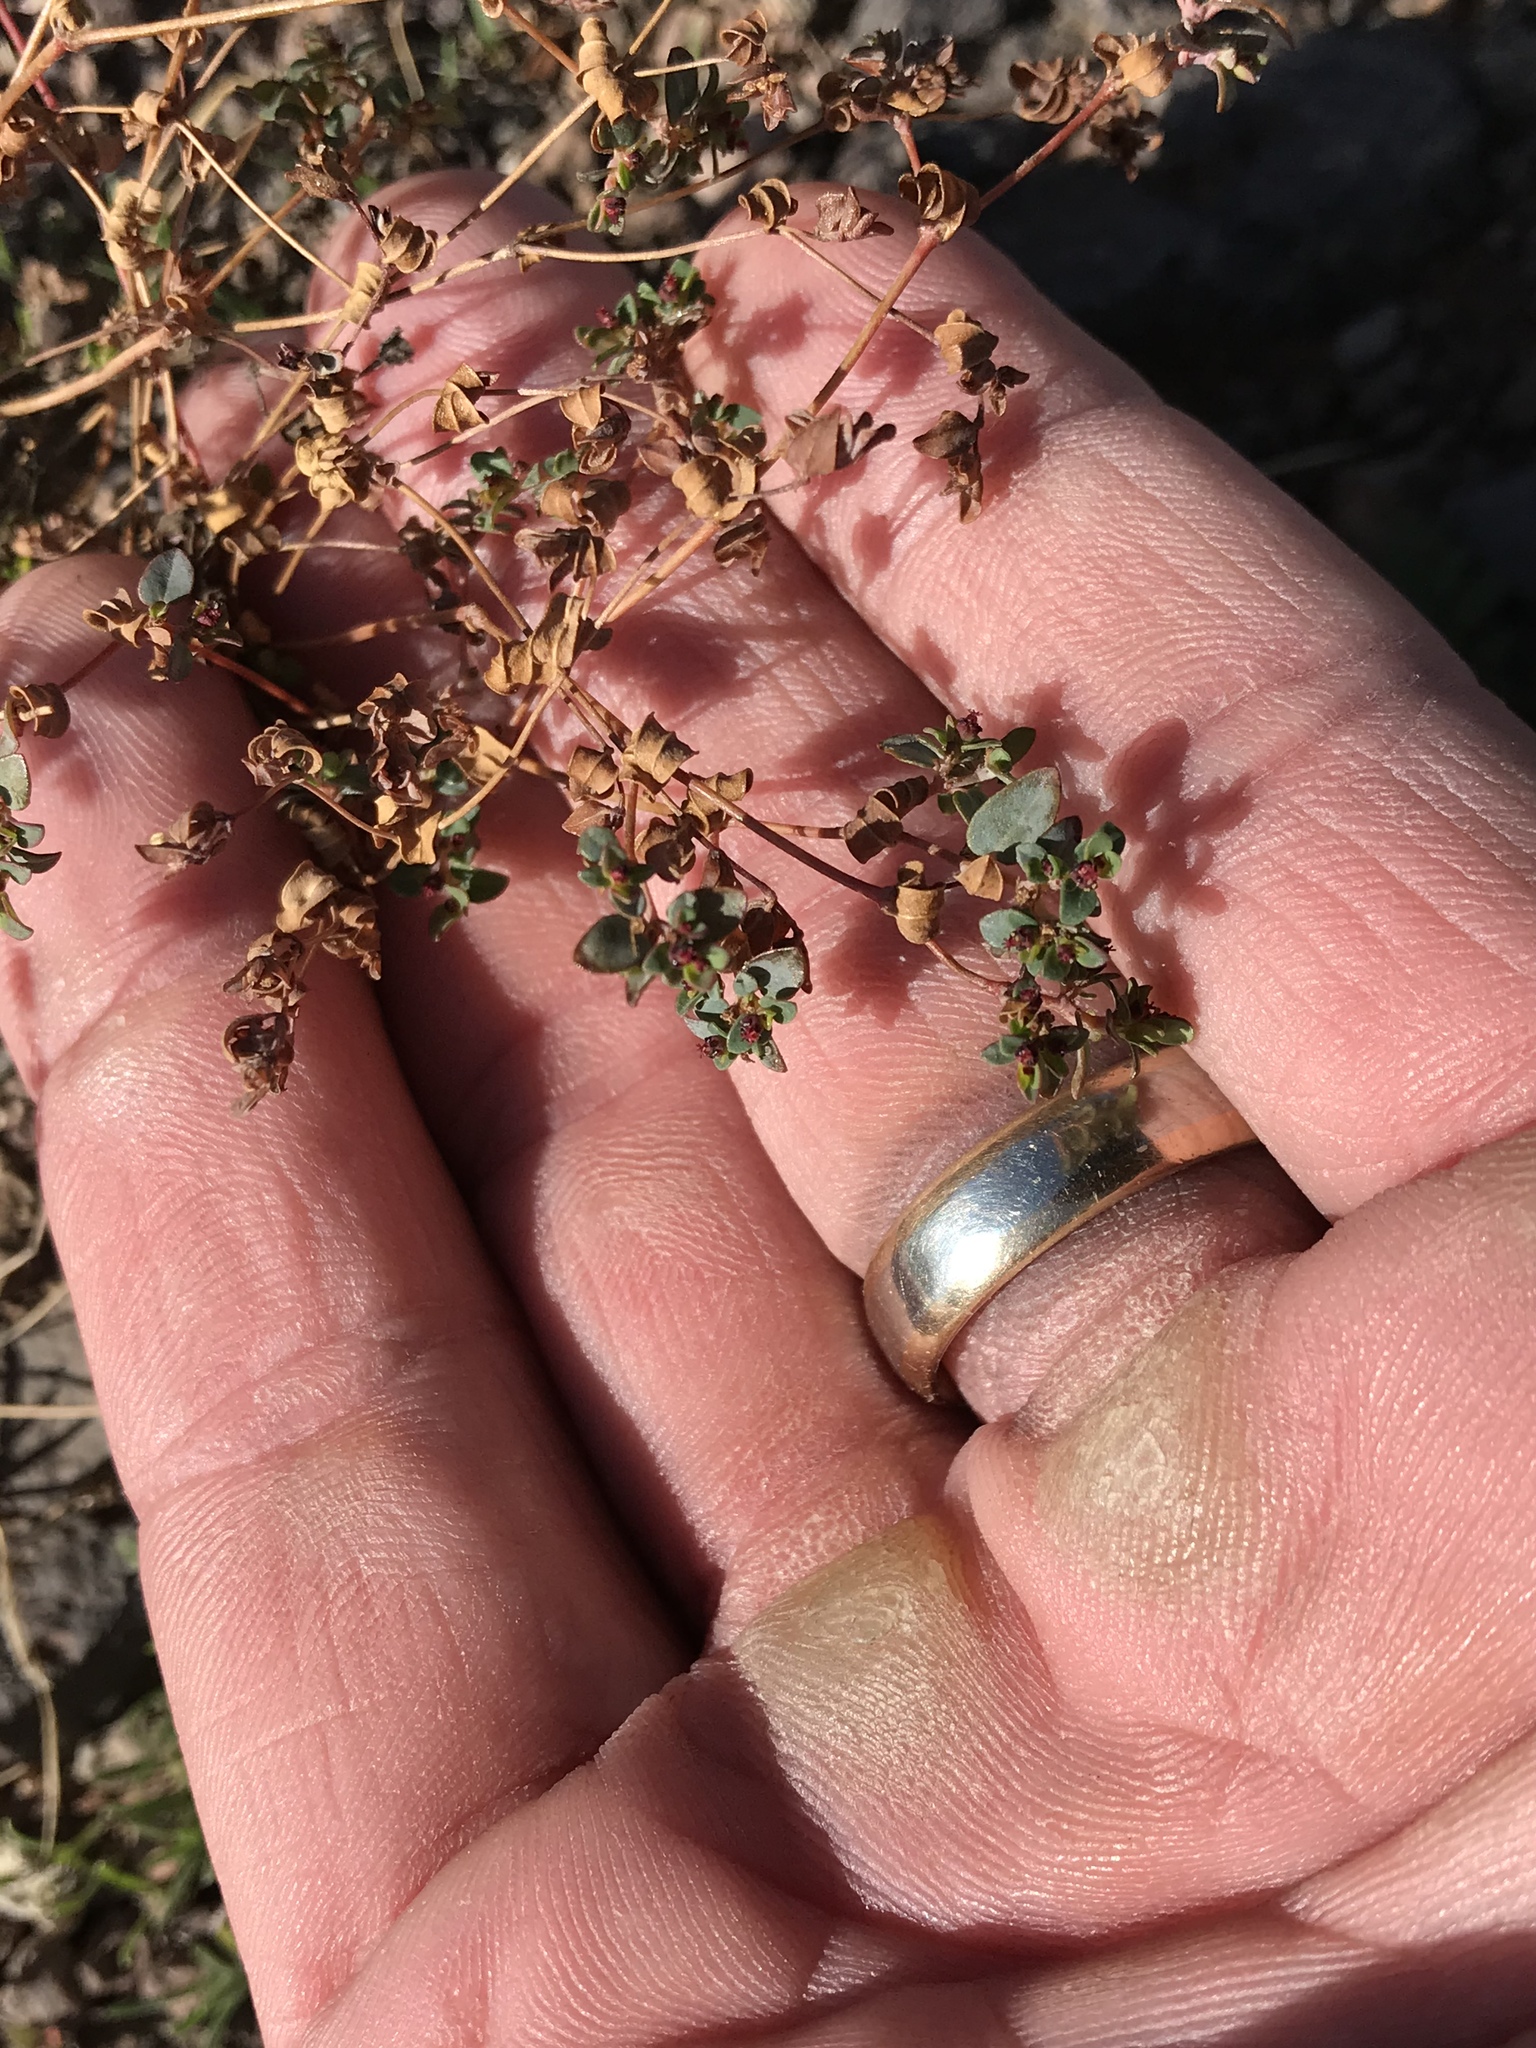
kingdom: Plantae
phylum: Tracheophyta
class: Magnoliopsida
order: Malpighiales
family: Euphorbiaceae
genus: Euphorbia
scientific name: Euphorbia polycarpa
